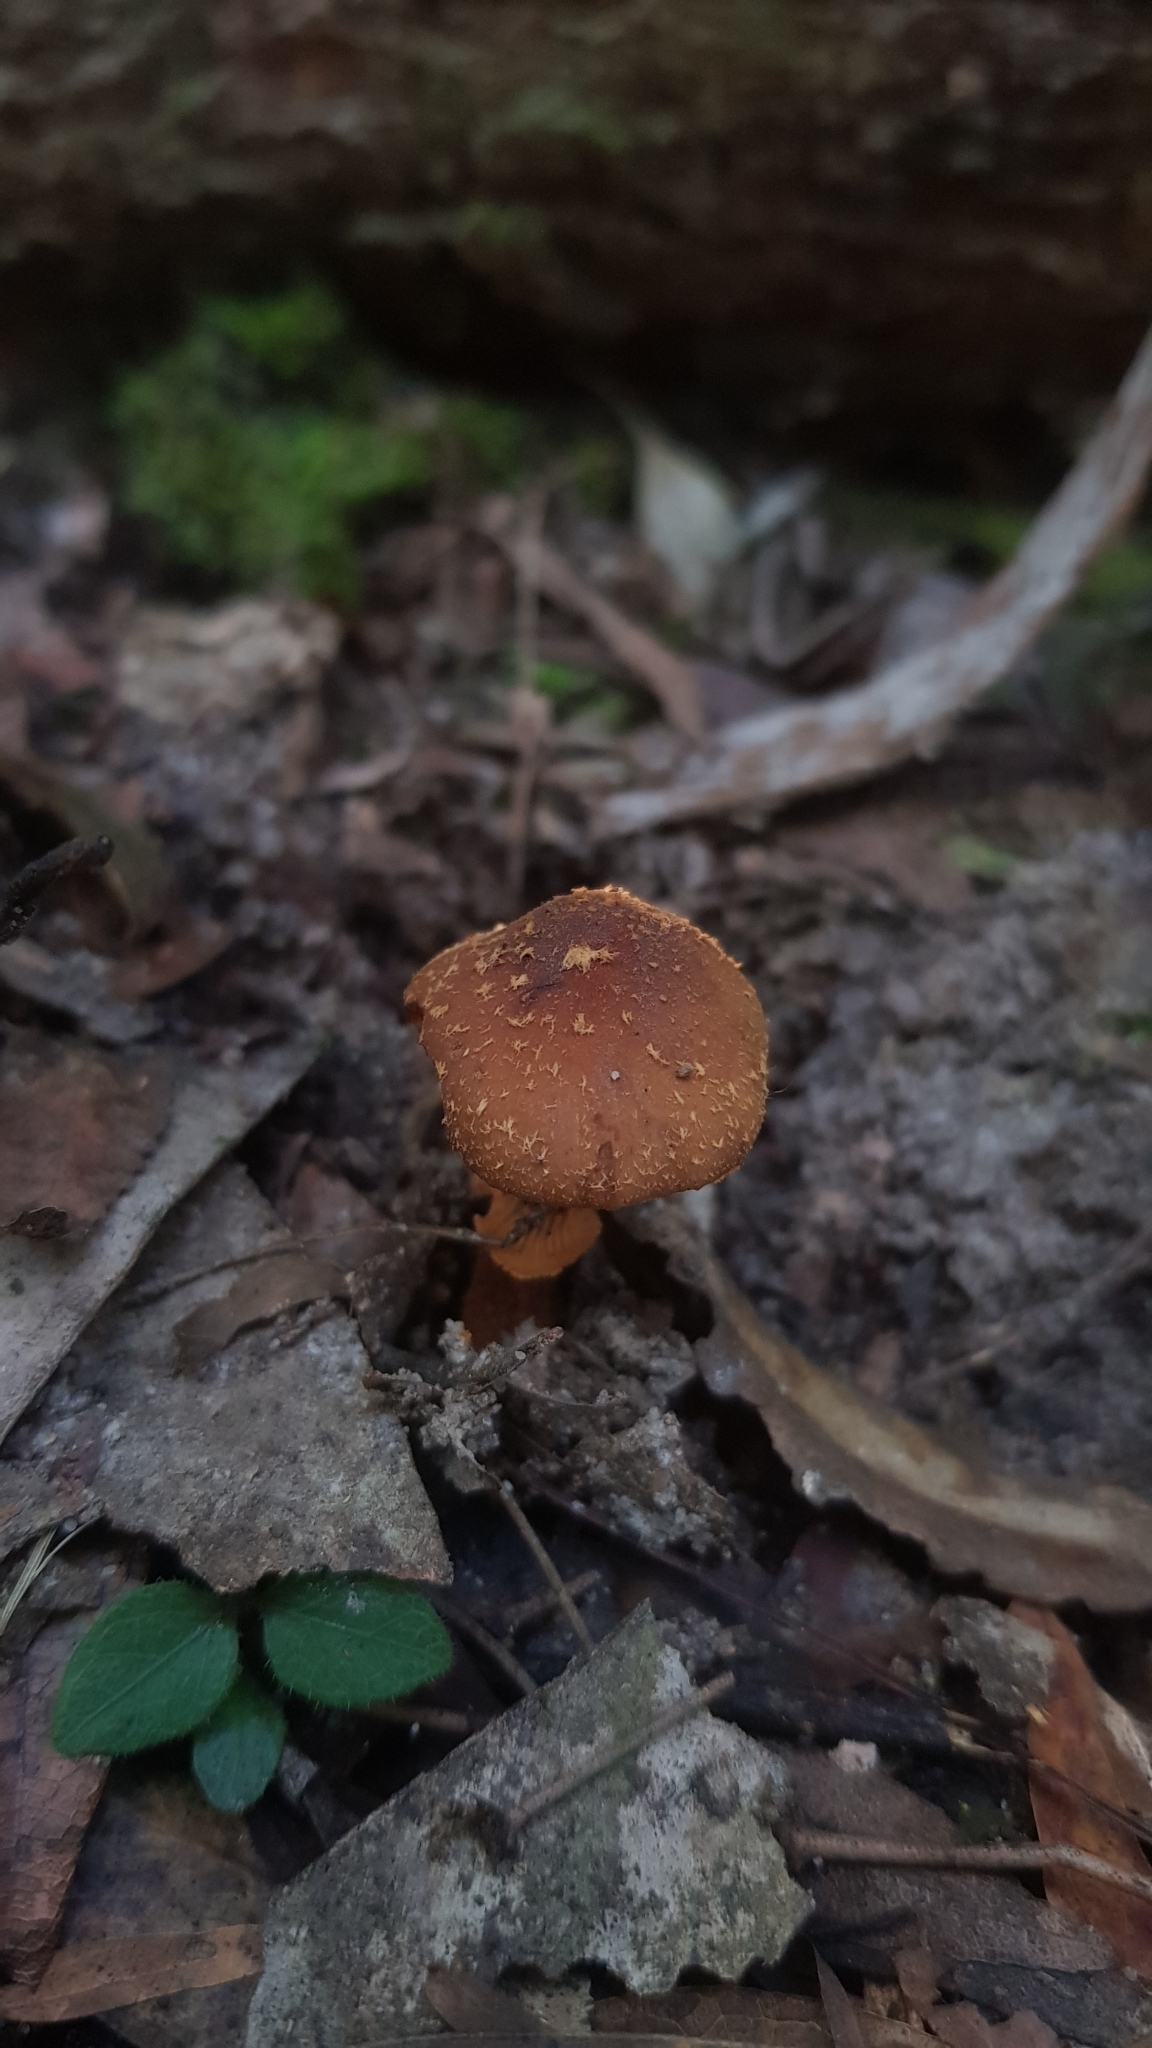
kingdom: Fungi
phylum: Basidiomycota
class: Agaricomycetes
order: Agaricales
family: Bolbitiaceae
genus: Descolea
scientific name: Descolea recedens
